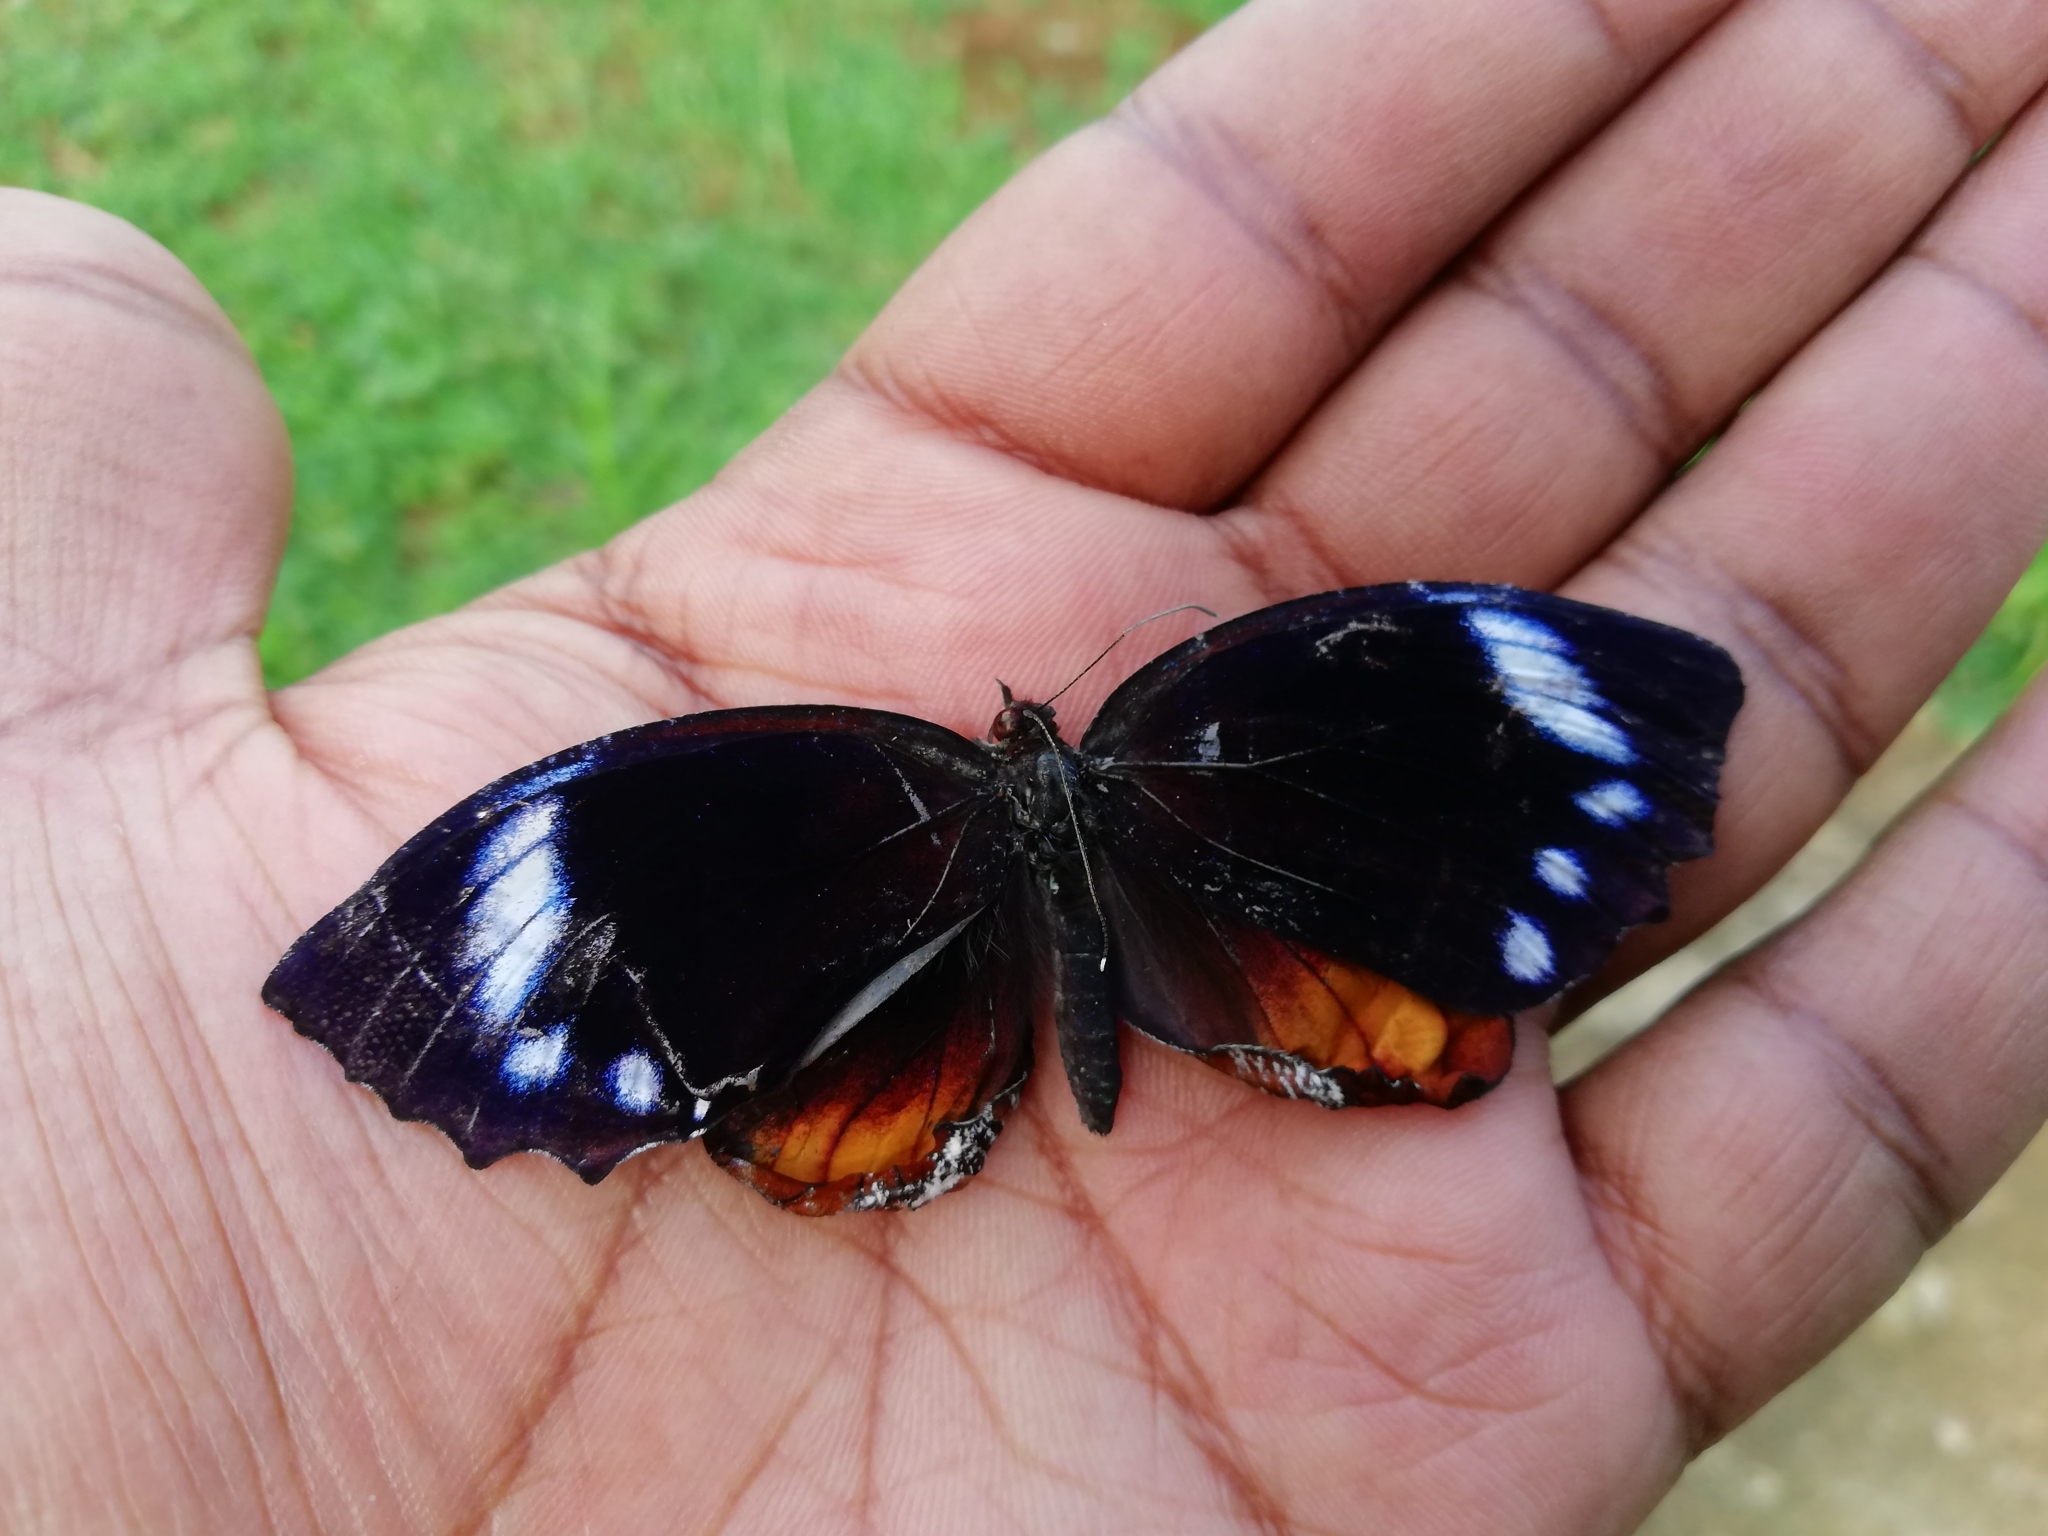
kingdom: Animalia
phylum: Arthropoda
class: Insecta
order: Lepidoptera
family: Nymphalidae
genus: Elymnias
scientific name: Elymnias caudata
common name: Tailed palmfly
